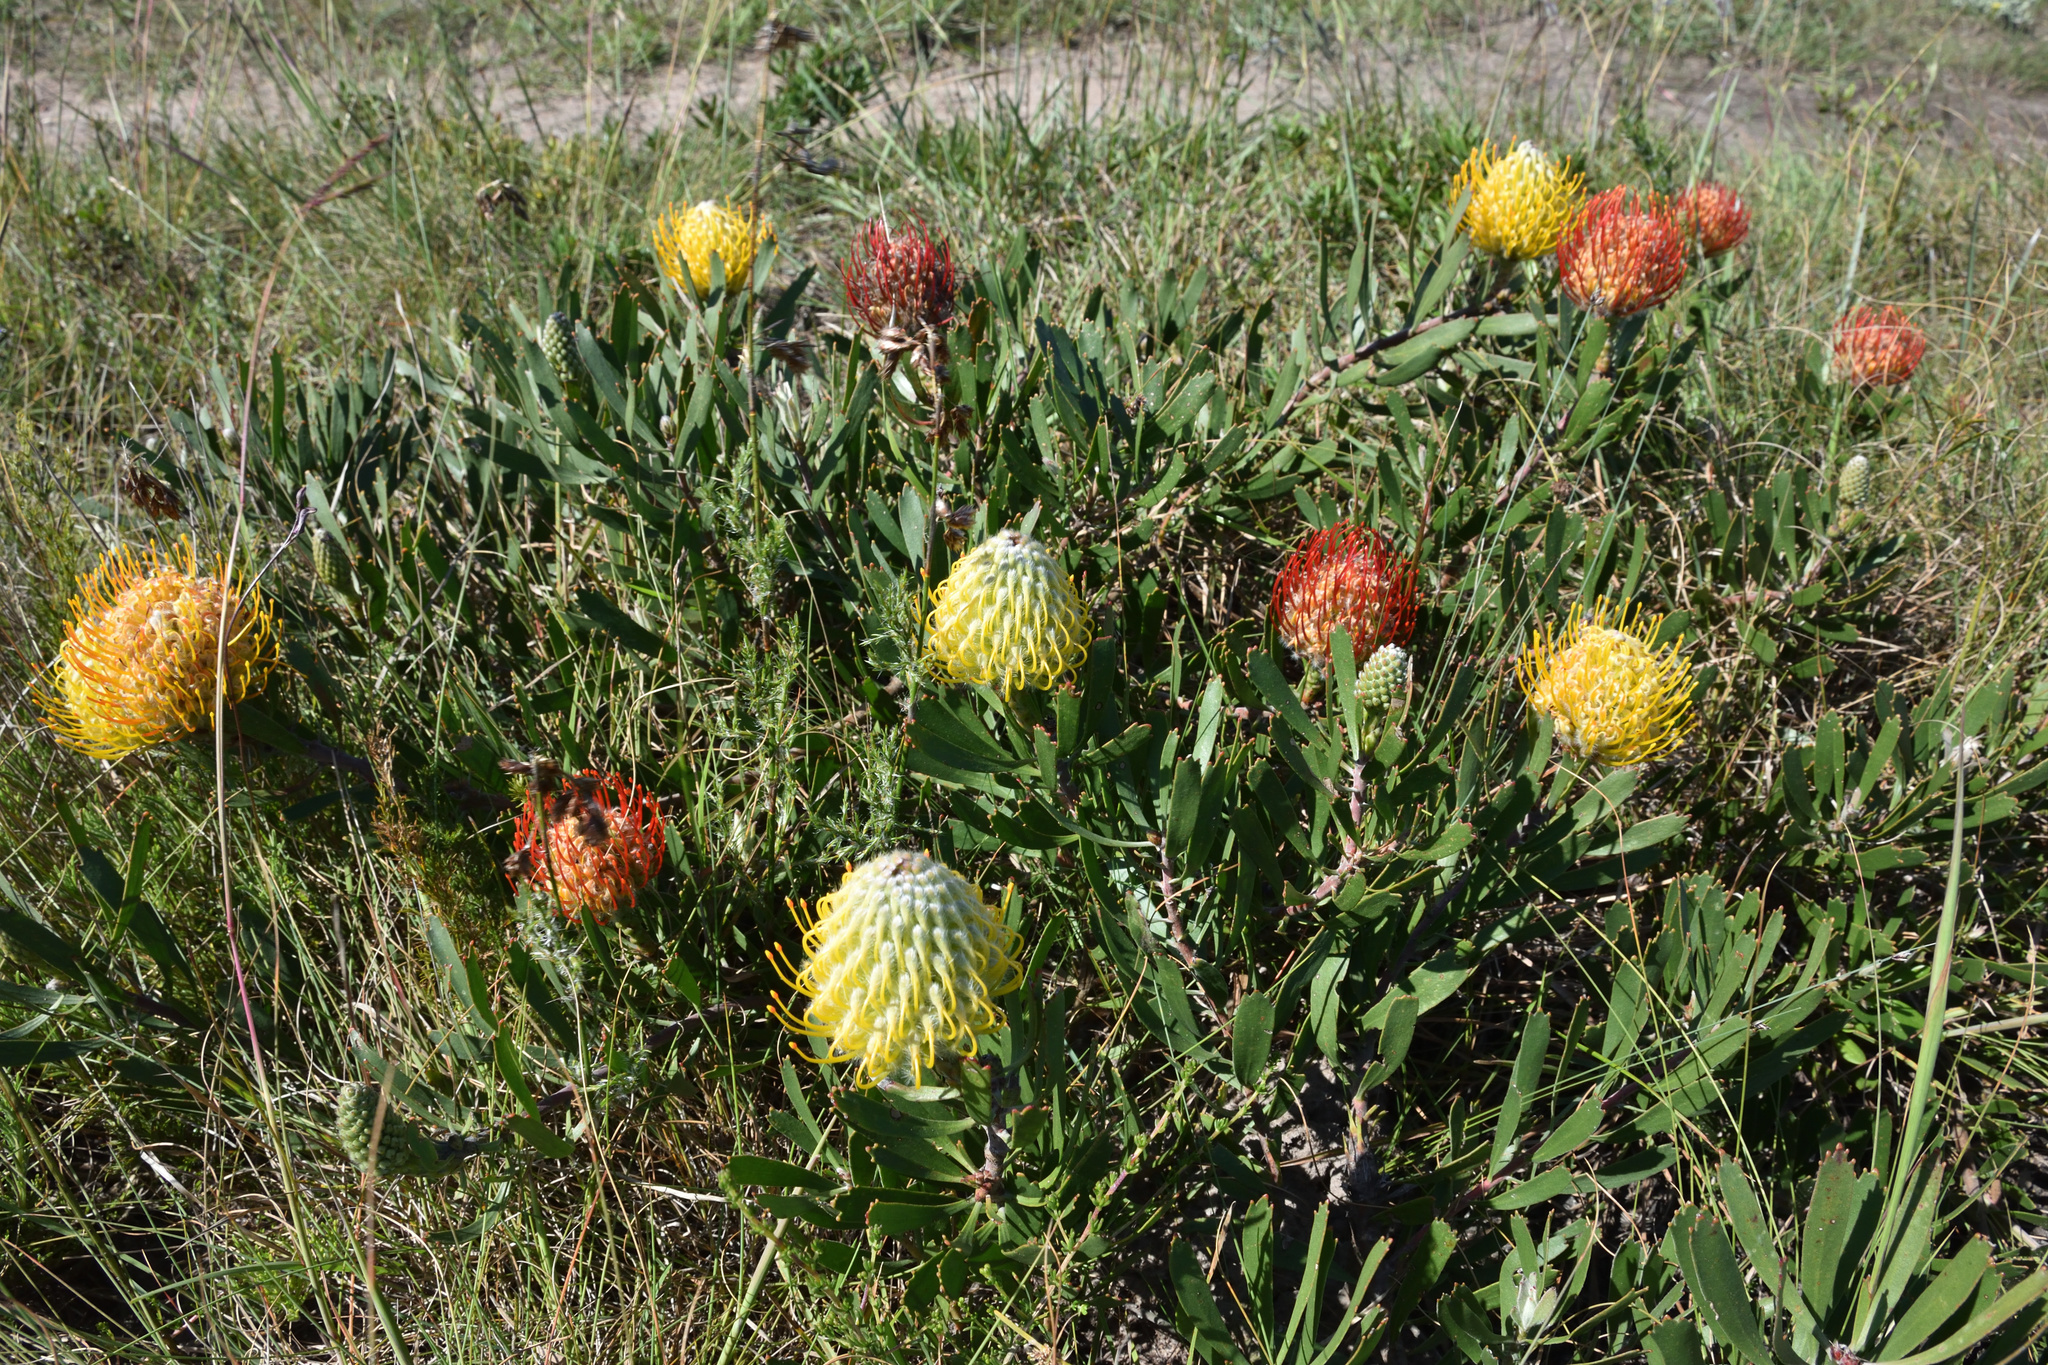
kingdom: Plantae
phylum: Tracheophyta
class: Magnoliopsida
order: Proteales
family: Proteaceae
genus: Leucospermum
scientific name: Leucospermum cuneiforme
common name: Common pincushion
